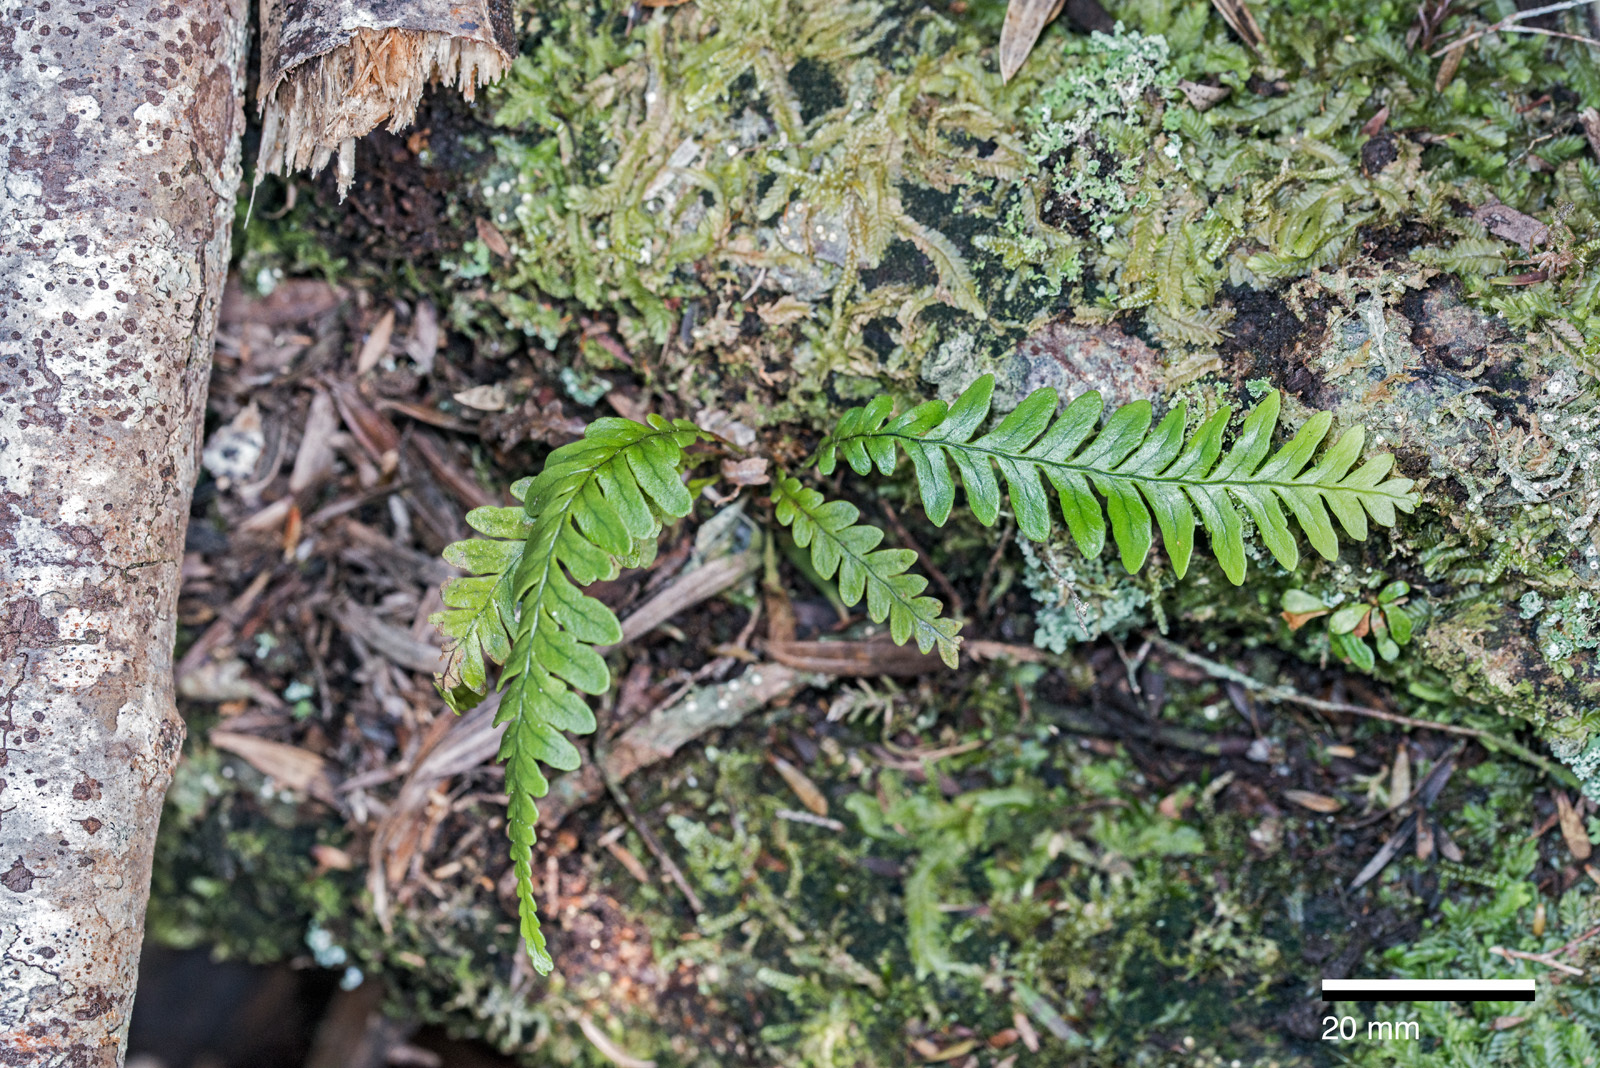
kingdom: Plantae
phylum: Tracheophyta
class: Polypodiopsida
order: Polypodiales
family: Polypodiaceae
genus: Notogrammitis
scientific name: Notogrammitis heterophylla
